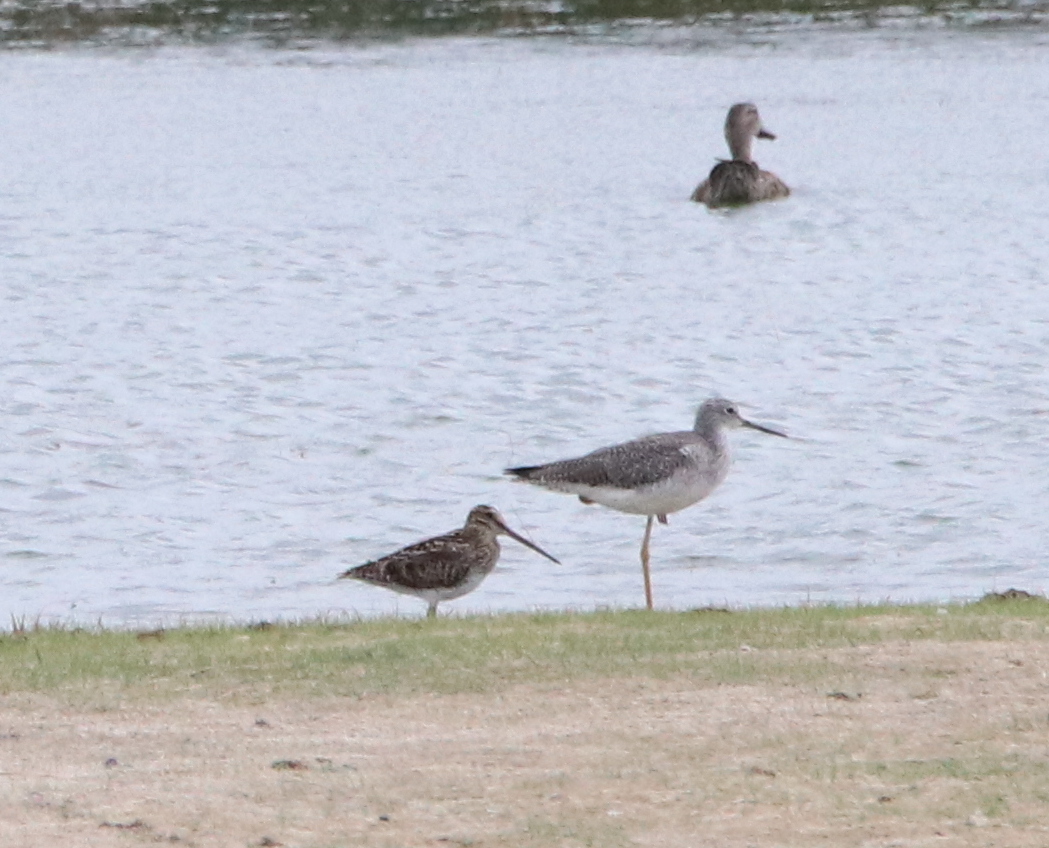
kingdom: Animalia
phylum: Chordata
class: Aves
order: Charadriiformes
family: Scolopacidae
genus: Gallinago
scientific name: Gallinago delicata
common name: Wilson's snipe
